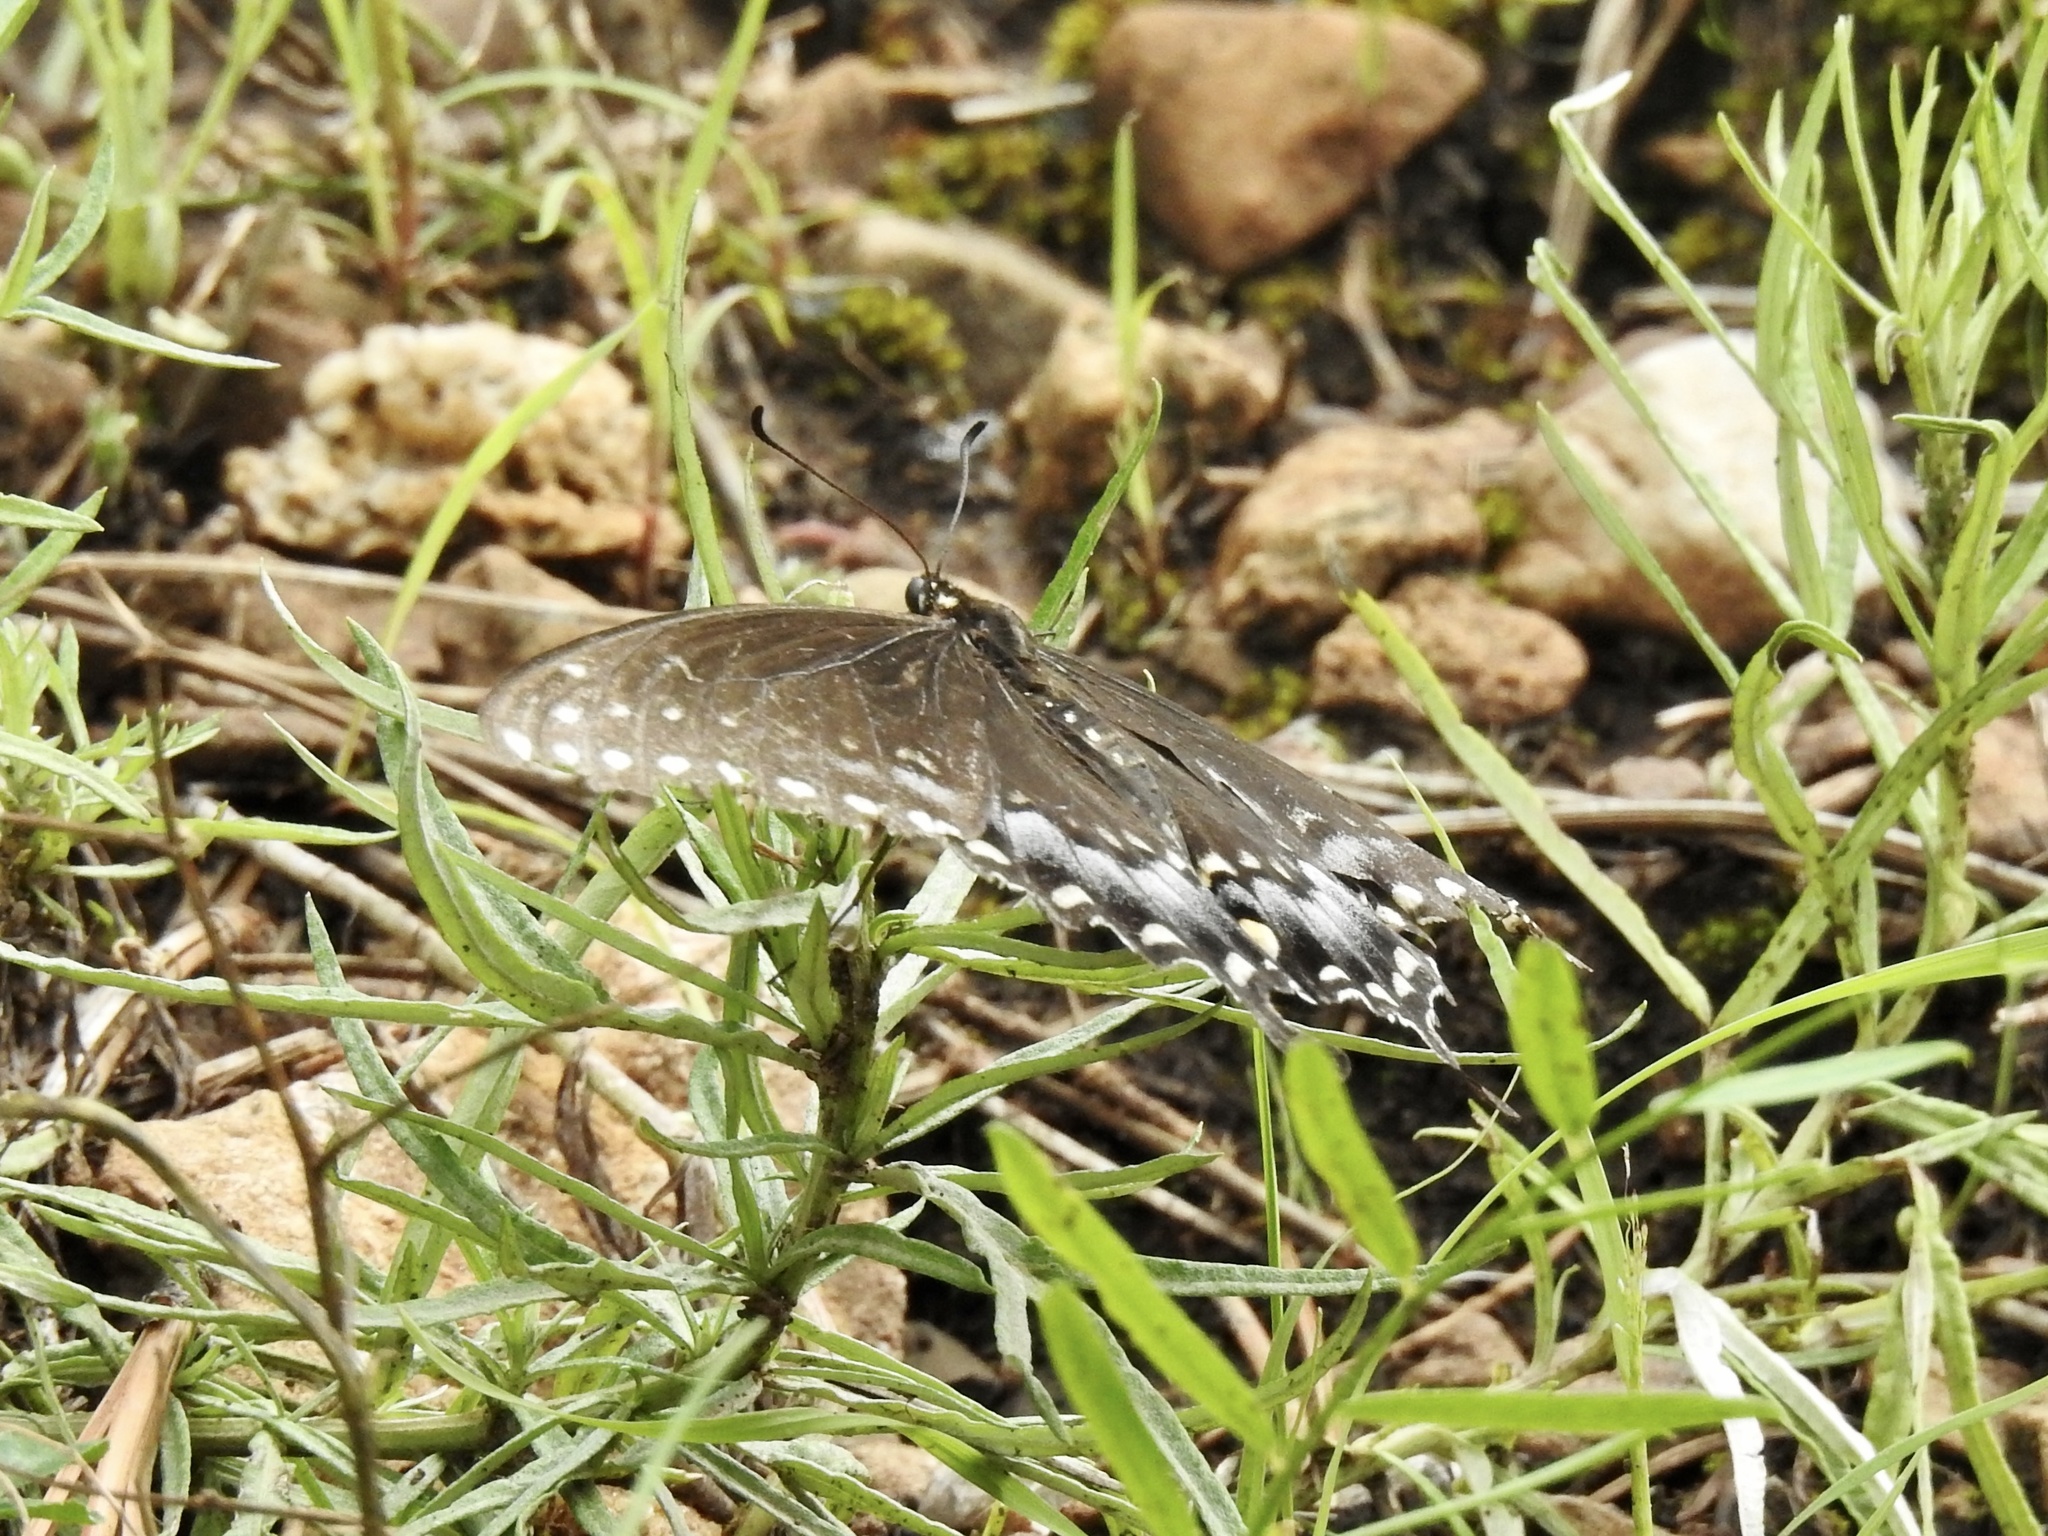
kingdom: Animalia
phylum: Arthropoda
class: Insecta
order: Lepidoptera
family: Papilionidae
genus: Papilio
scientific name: Papilio polyxenes
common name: Black swallowtail
